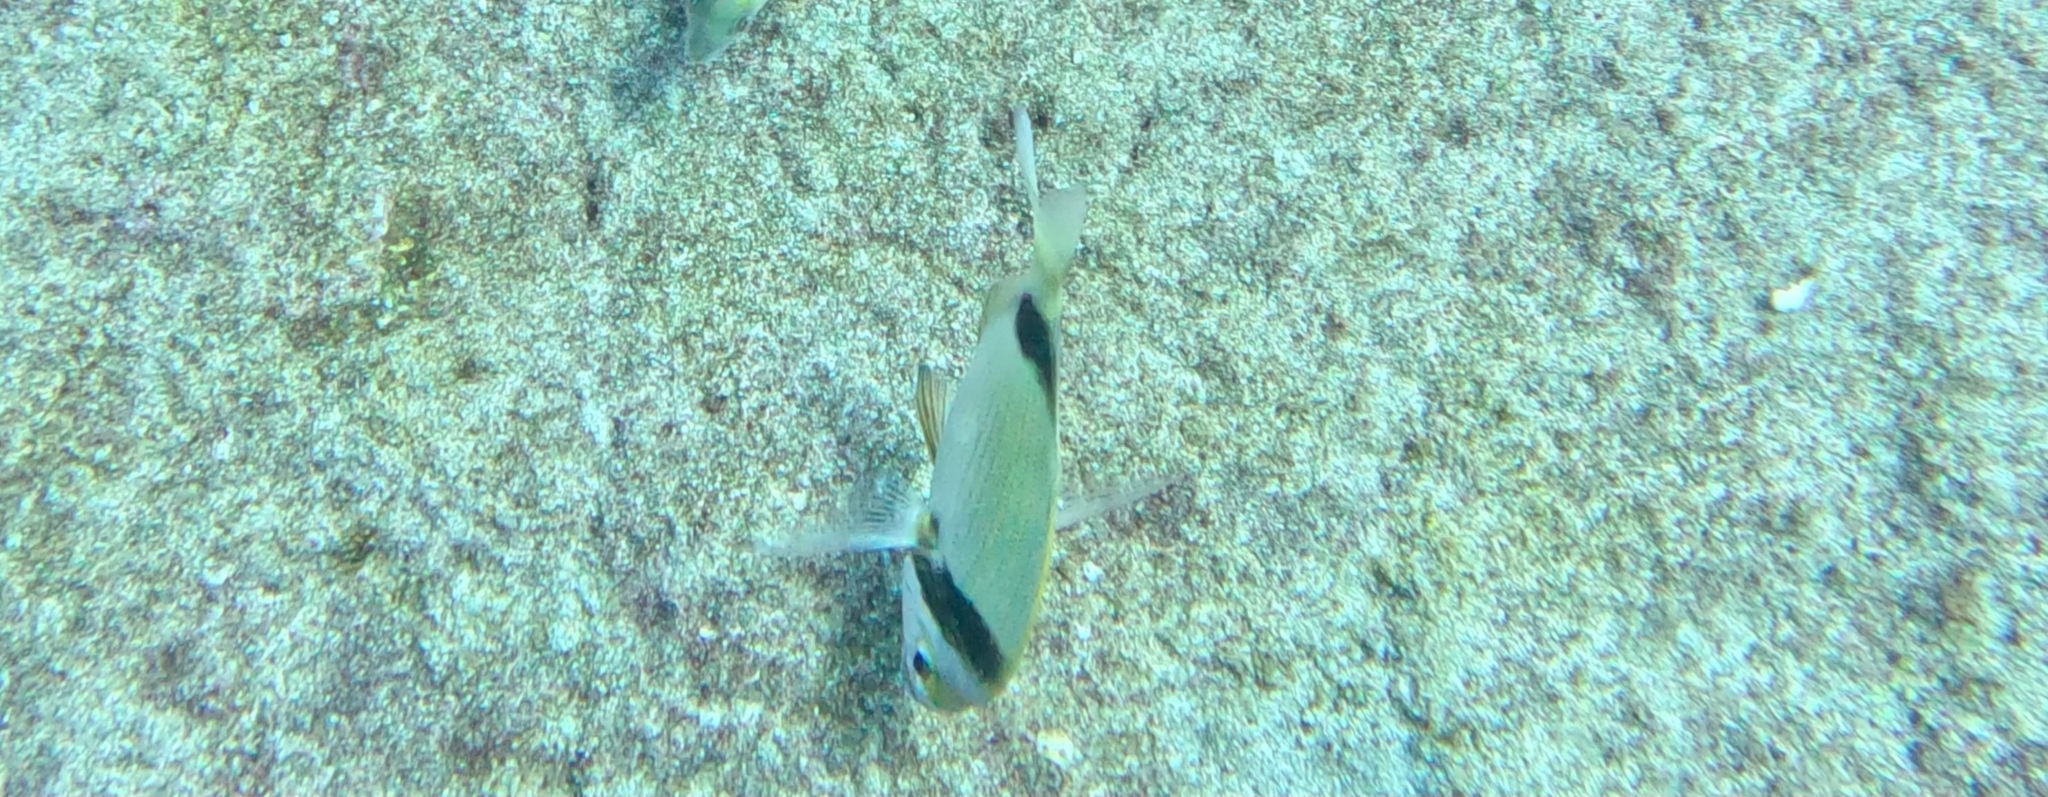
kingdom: Animalia
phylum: Chordata
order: Perciformes
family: Sparidae
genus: Diplodus
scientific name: Diplodus vulgaris
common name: Common two-banded seabream
